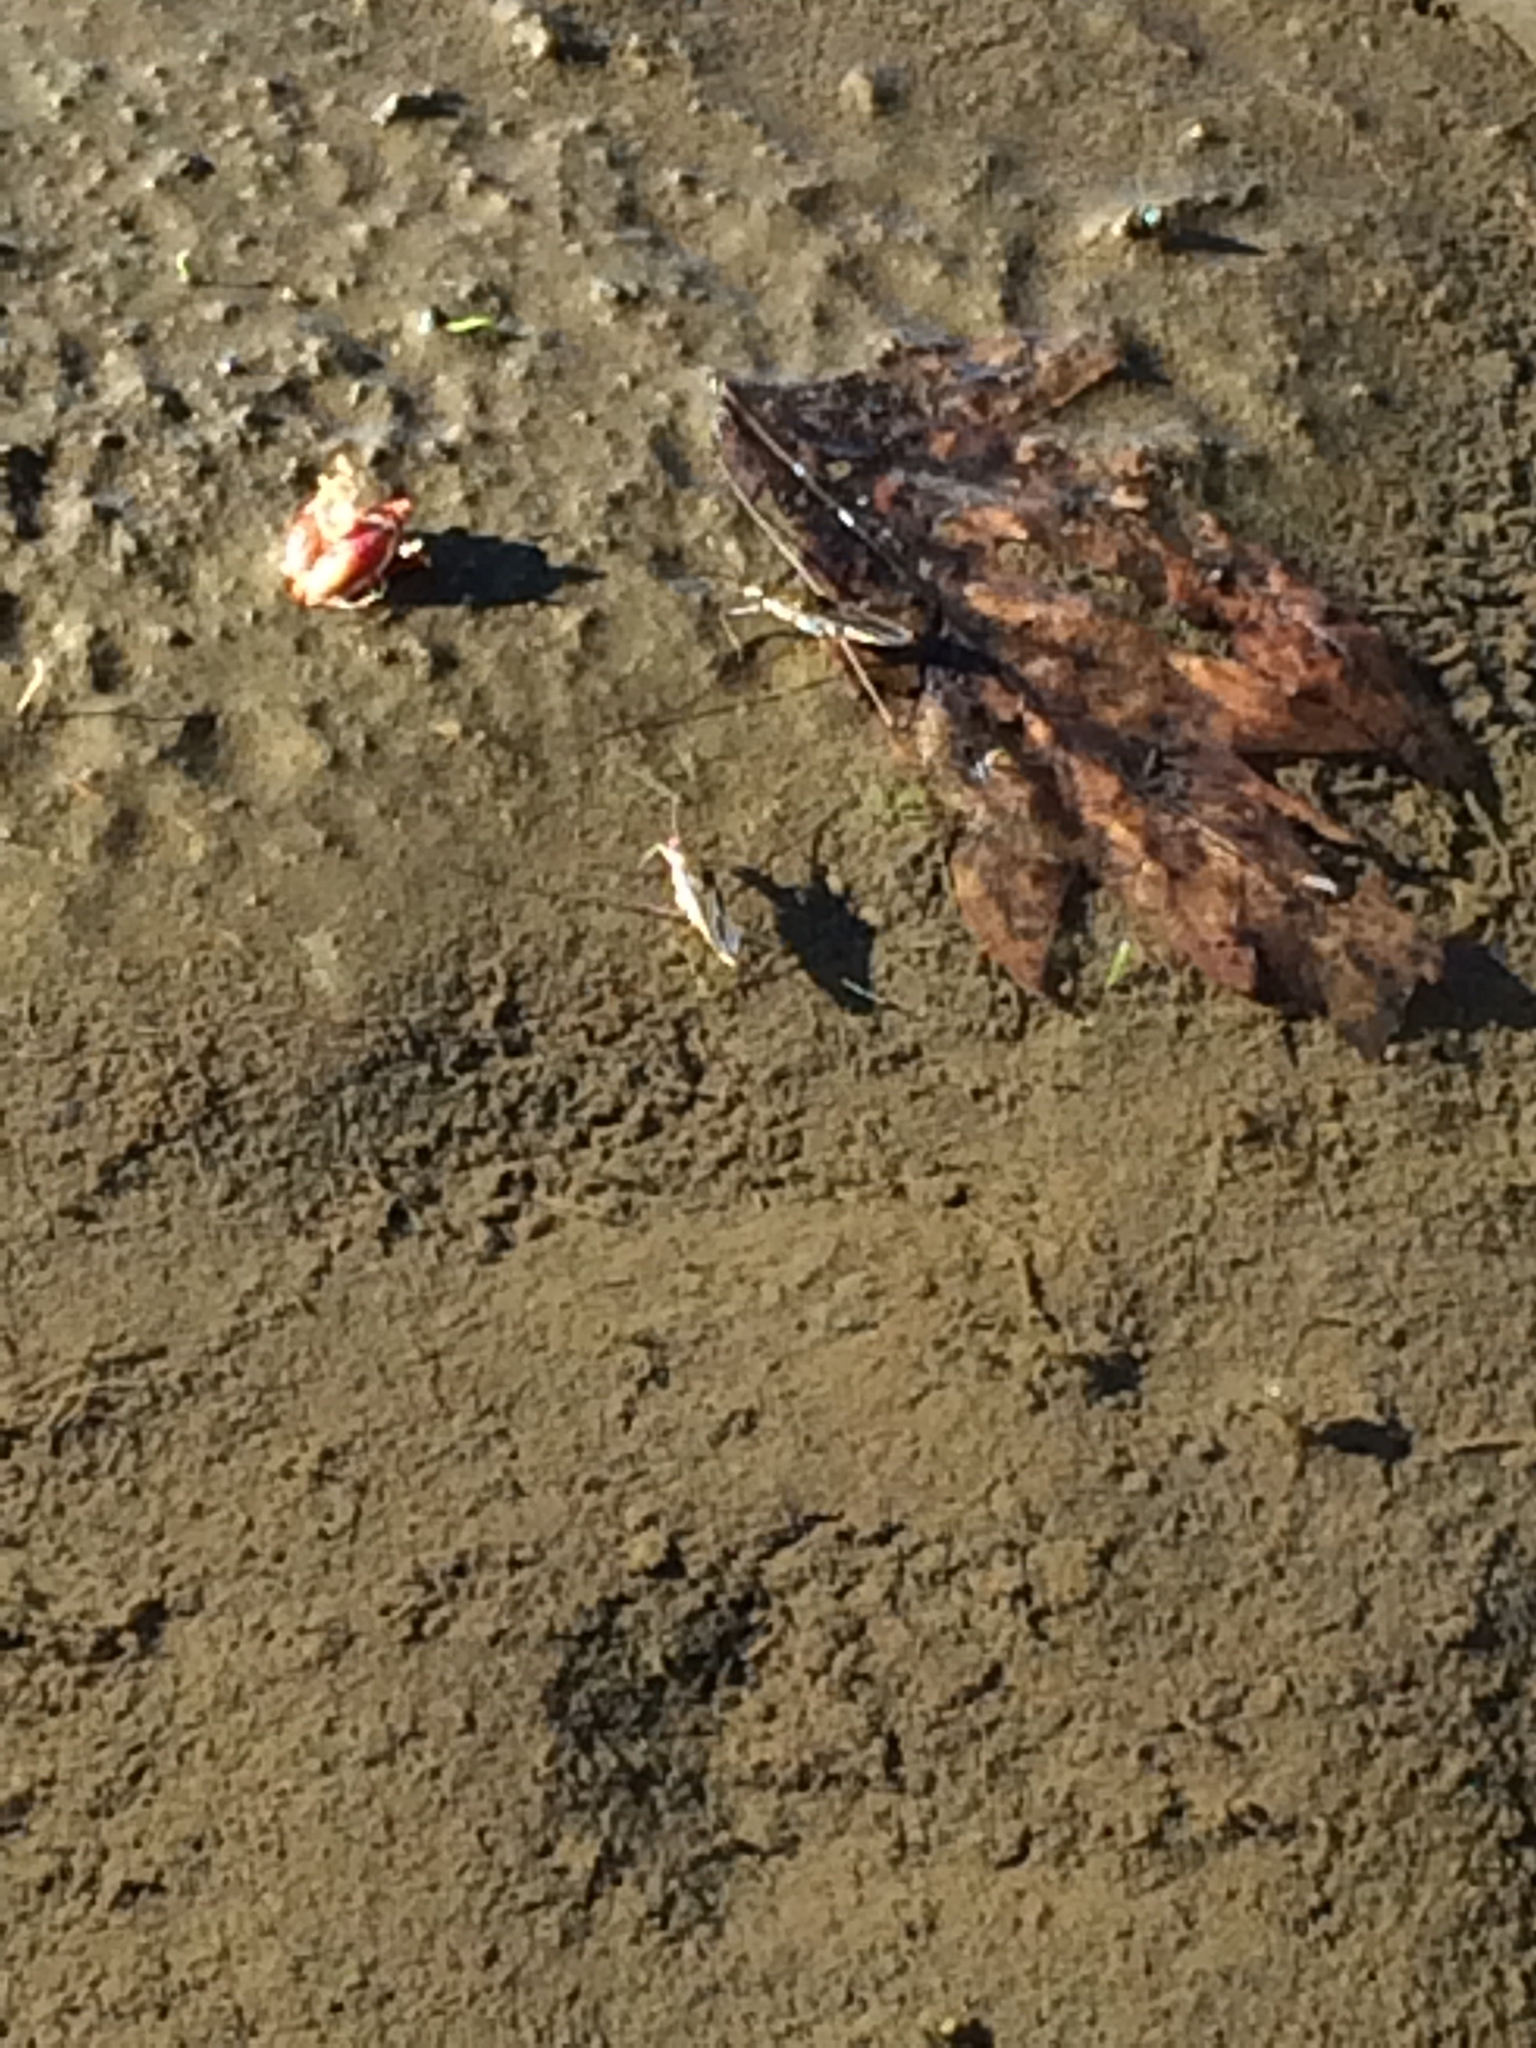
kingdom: Animalia
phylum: Arthropoda
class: Insecta
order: Hemiptera
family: Gerridae
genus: Gerris
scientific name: Gerris
